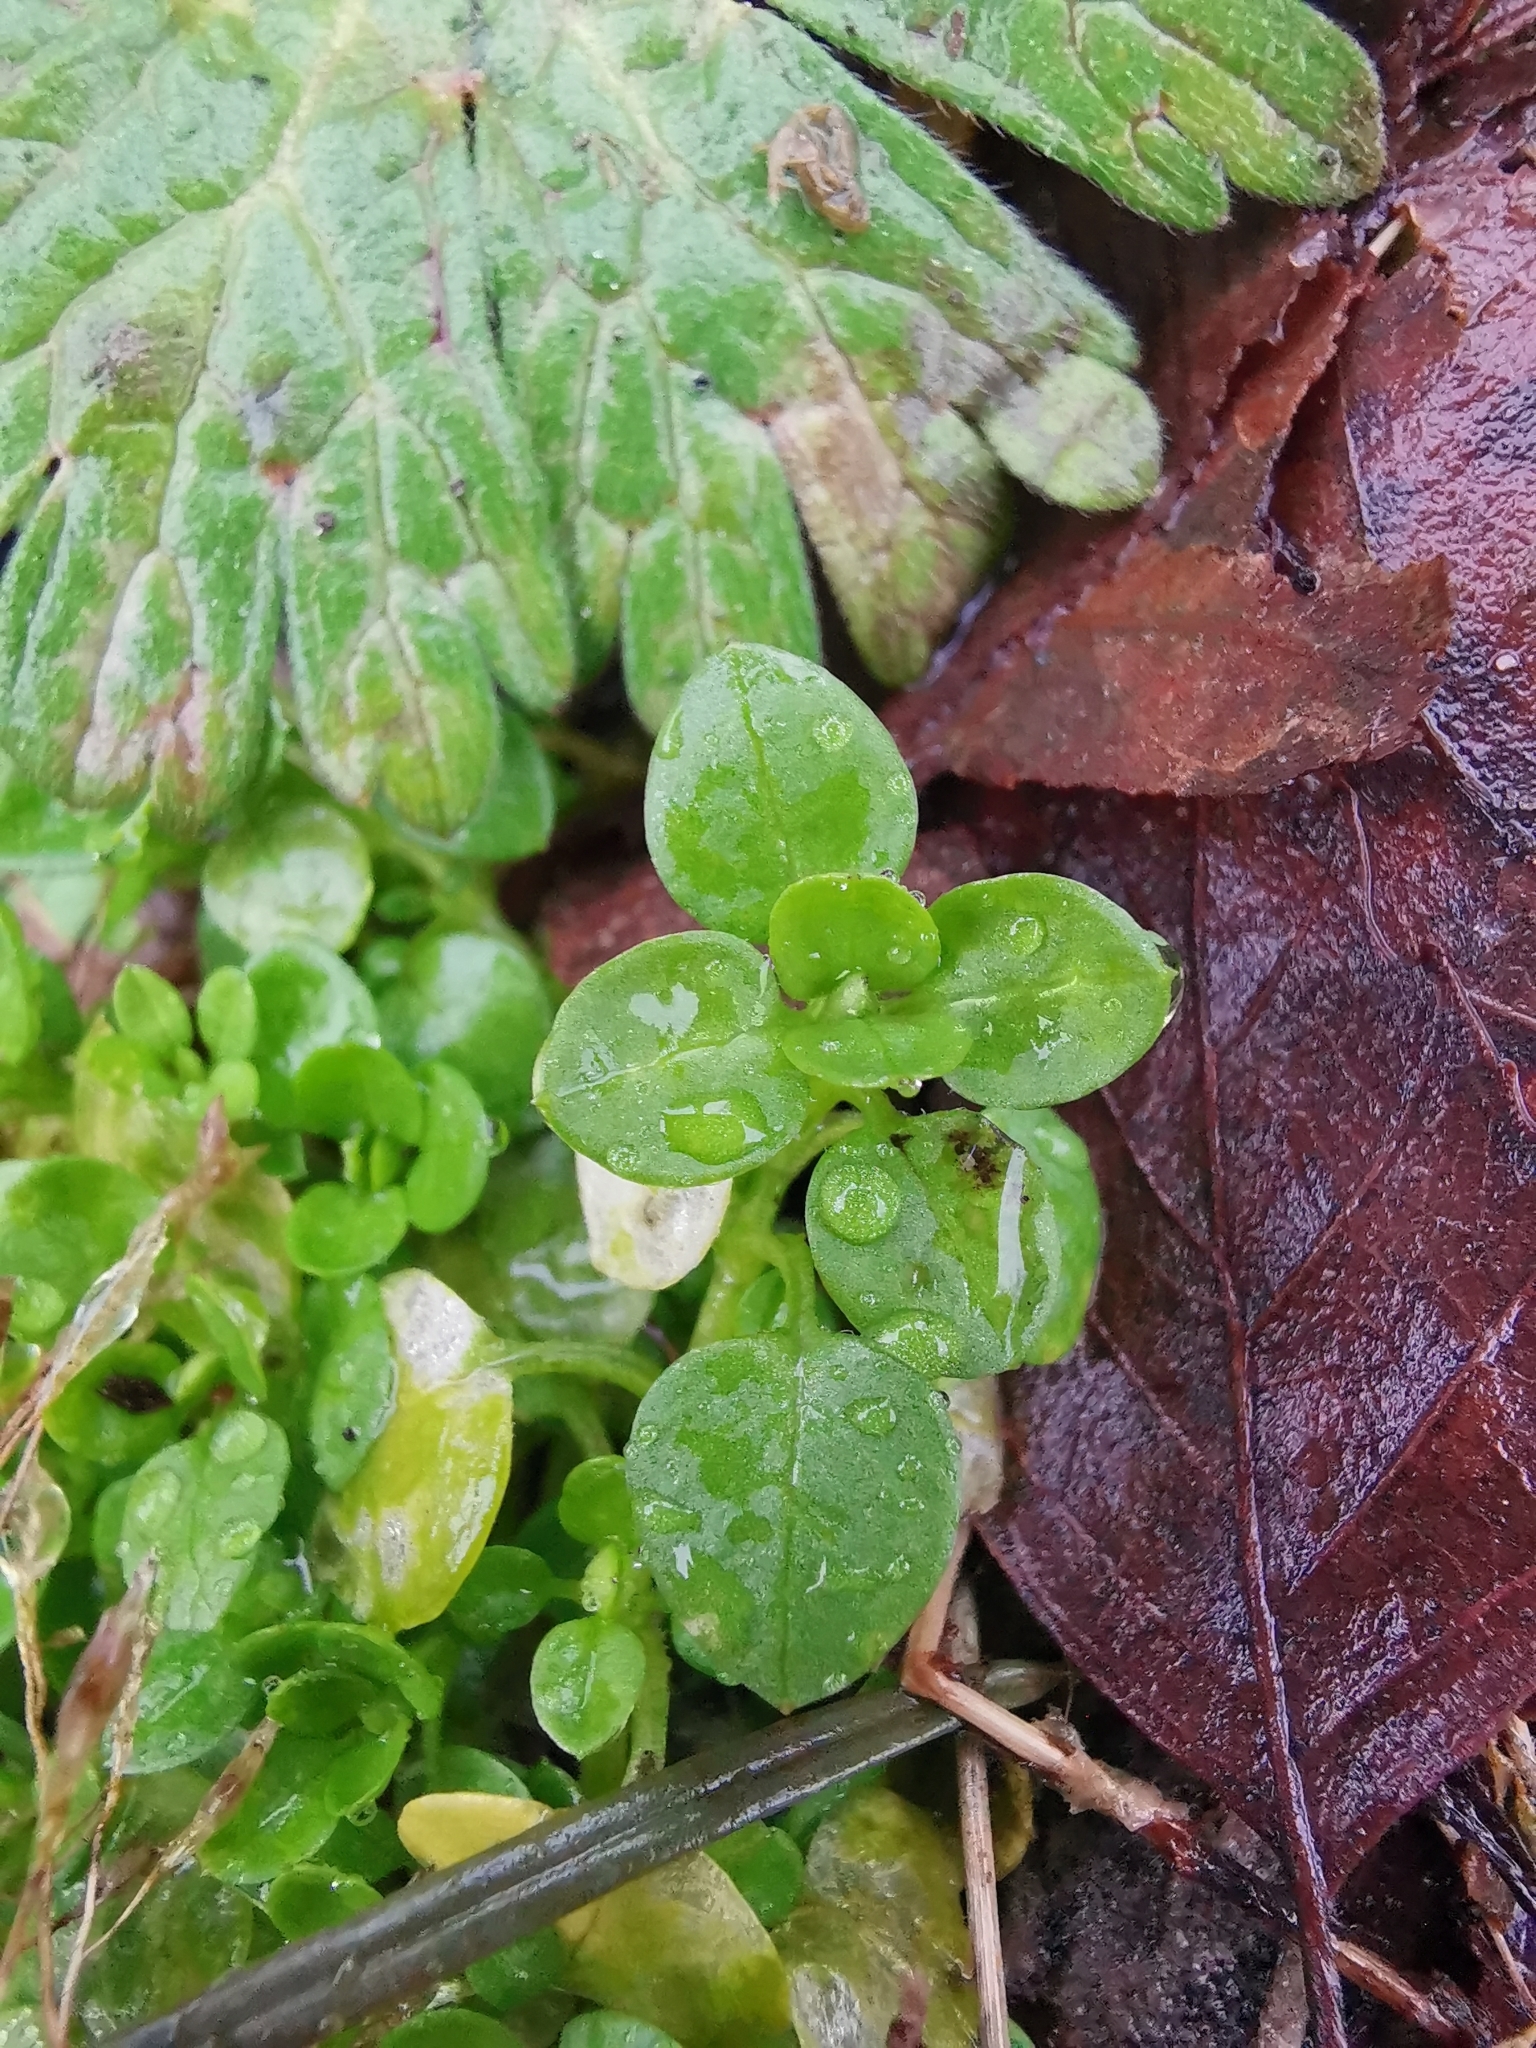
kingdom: Plantae
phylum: Tracheophyta
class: Magnoliopsida
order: Caryophyllales
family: Caryophyllaceae
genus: Stellaria
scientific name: Stellaria media
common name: Common chickweed
